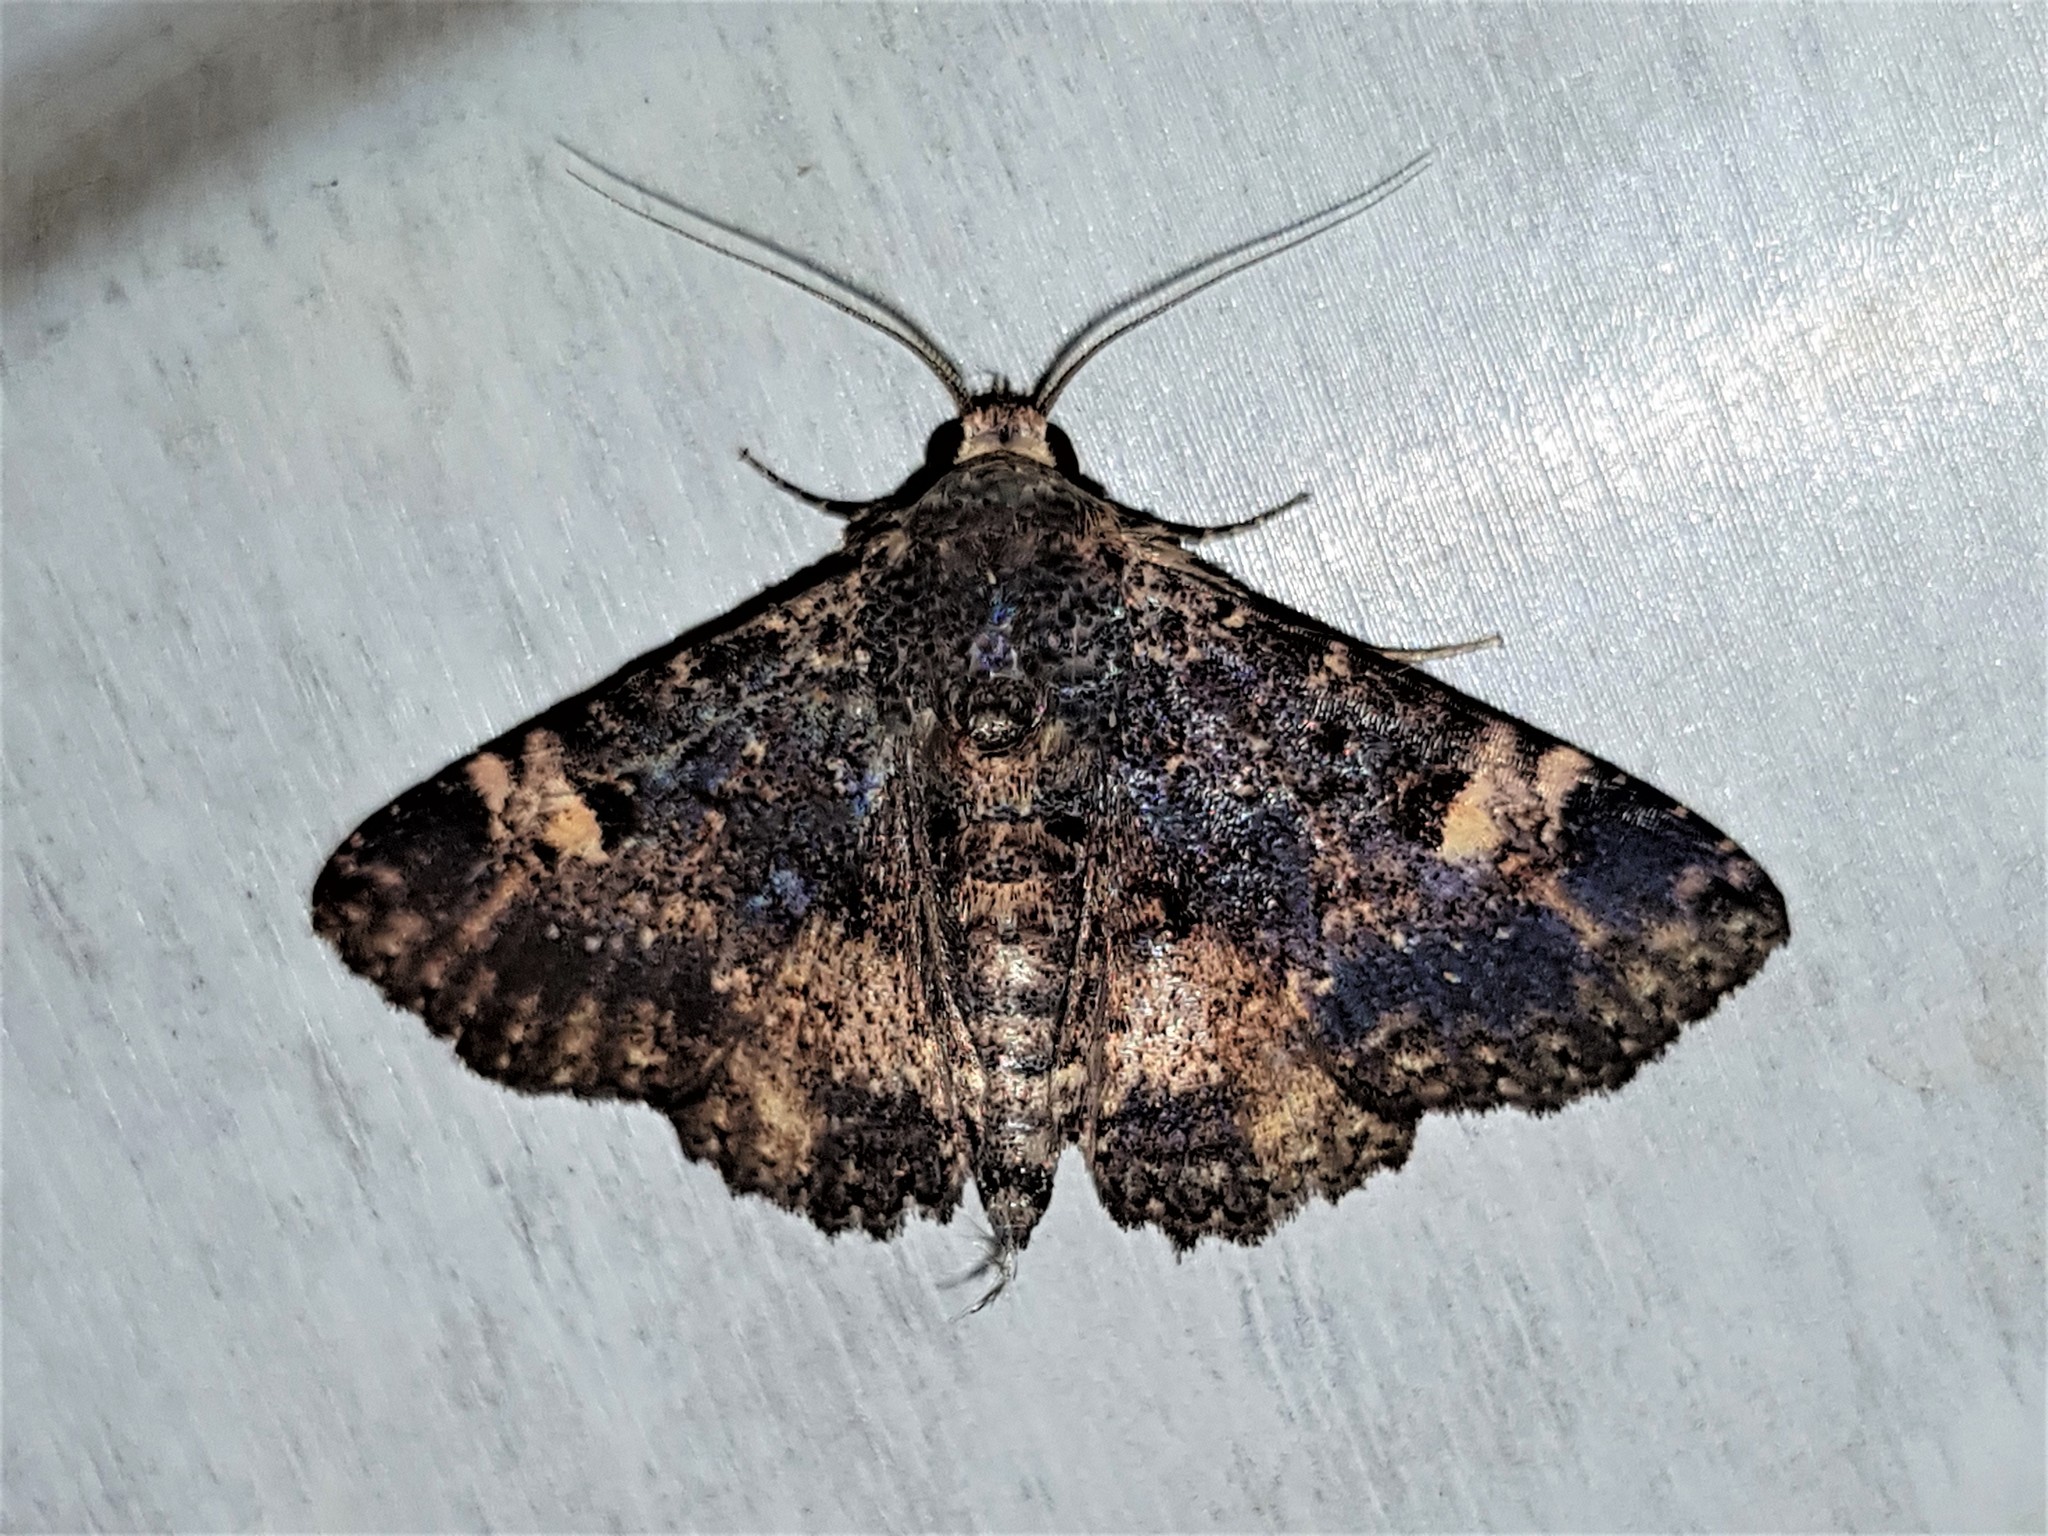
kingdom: Animalia
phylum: Arthropoda
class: Insecta
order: Lepidoptera
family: Erebidae
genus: Metalectra
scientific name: Metalectra carneomacula
